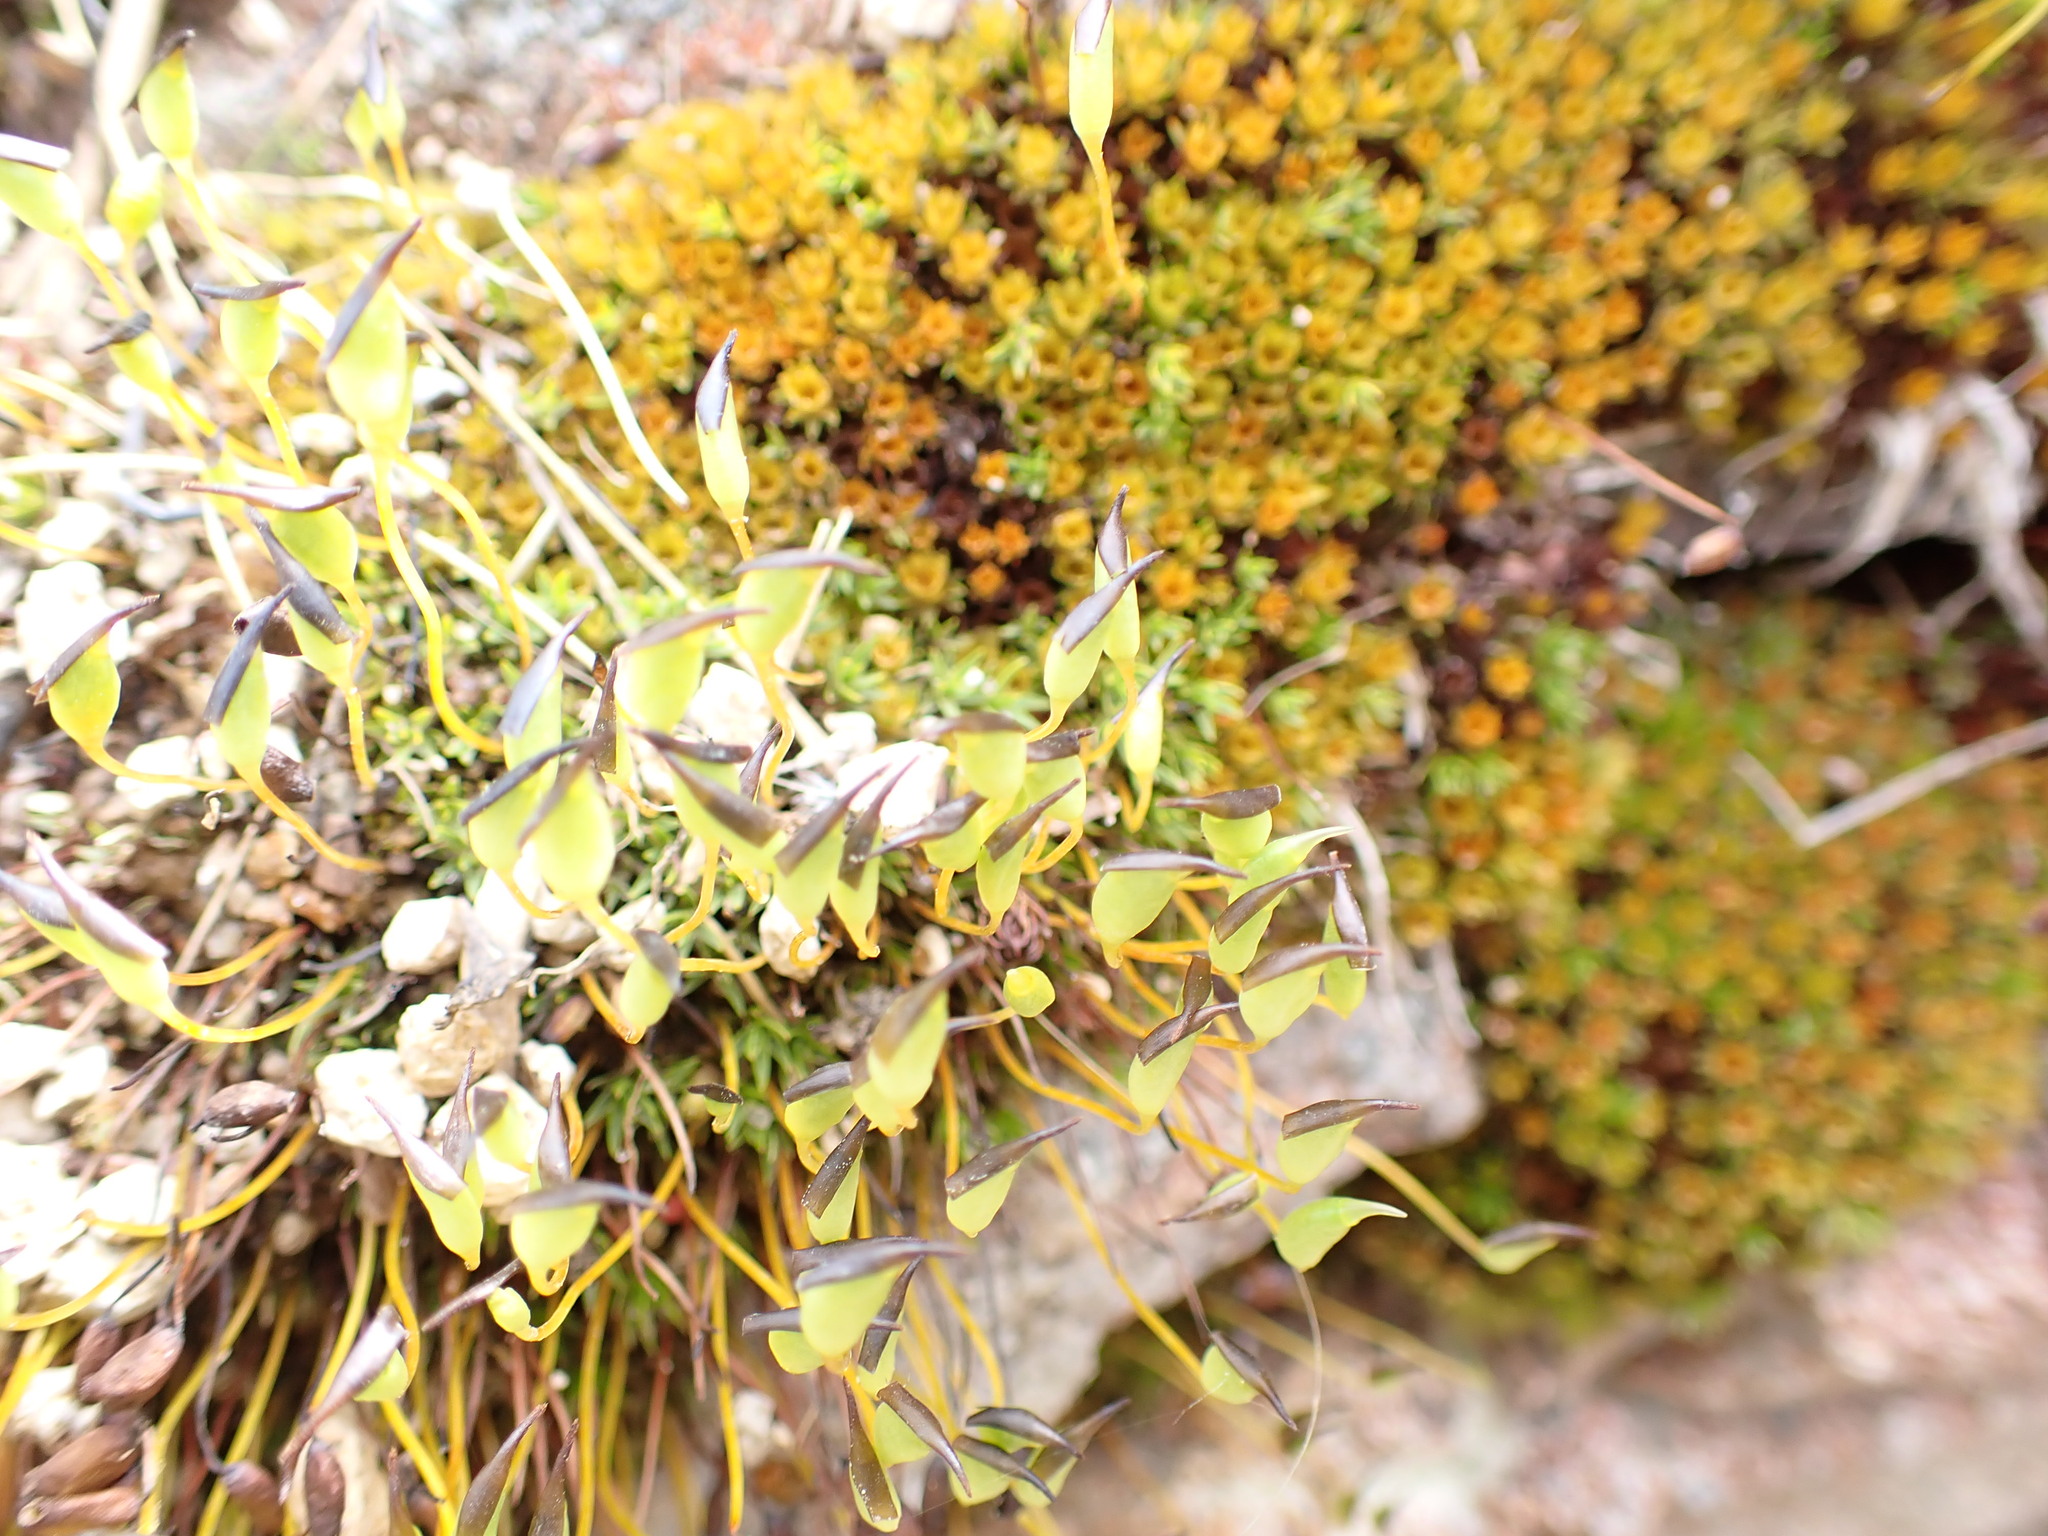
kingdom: Plantae
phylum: Bryophyta
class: Polytrichopsida
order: Polytrichales
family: Polytrichaceae
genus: Atrichopsis
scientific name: Atrichopsis australis
